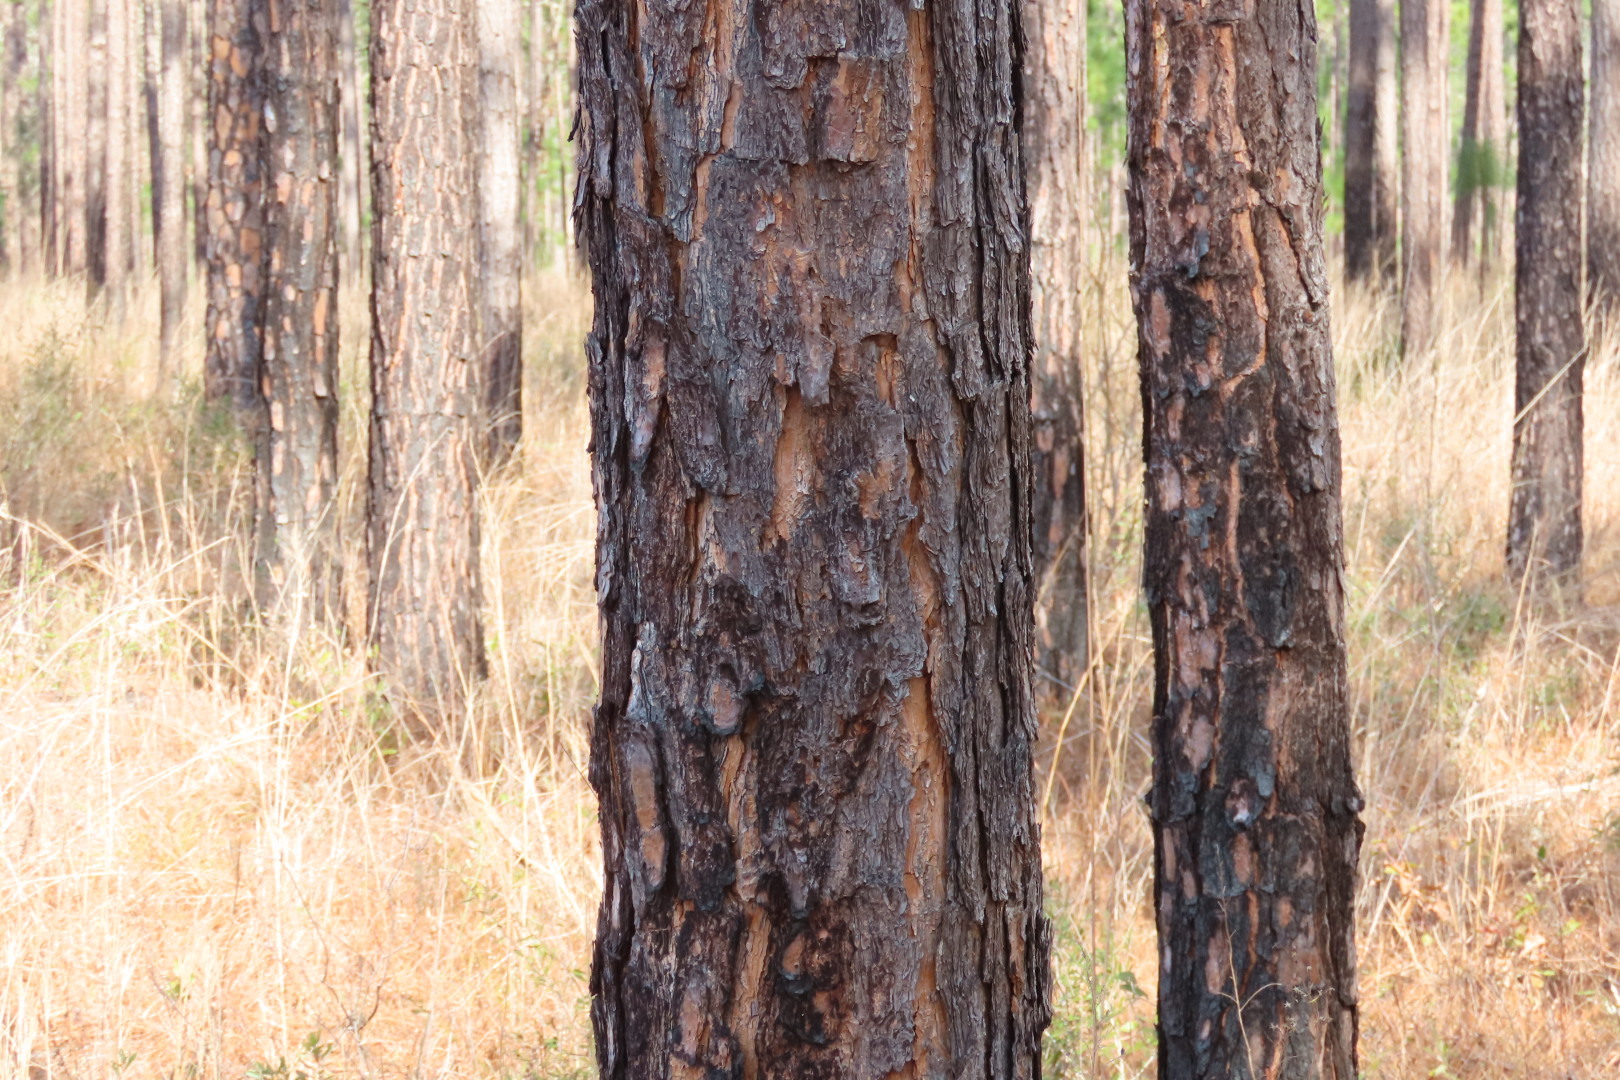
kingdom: Plantae
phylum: Tracheophyta
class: Pinopsida
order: Pinales
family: Pinaceae
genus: Pinus
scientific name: Pinus palustris
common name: Longleaf pine
